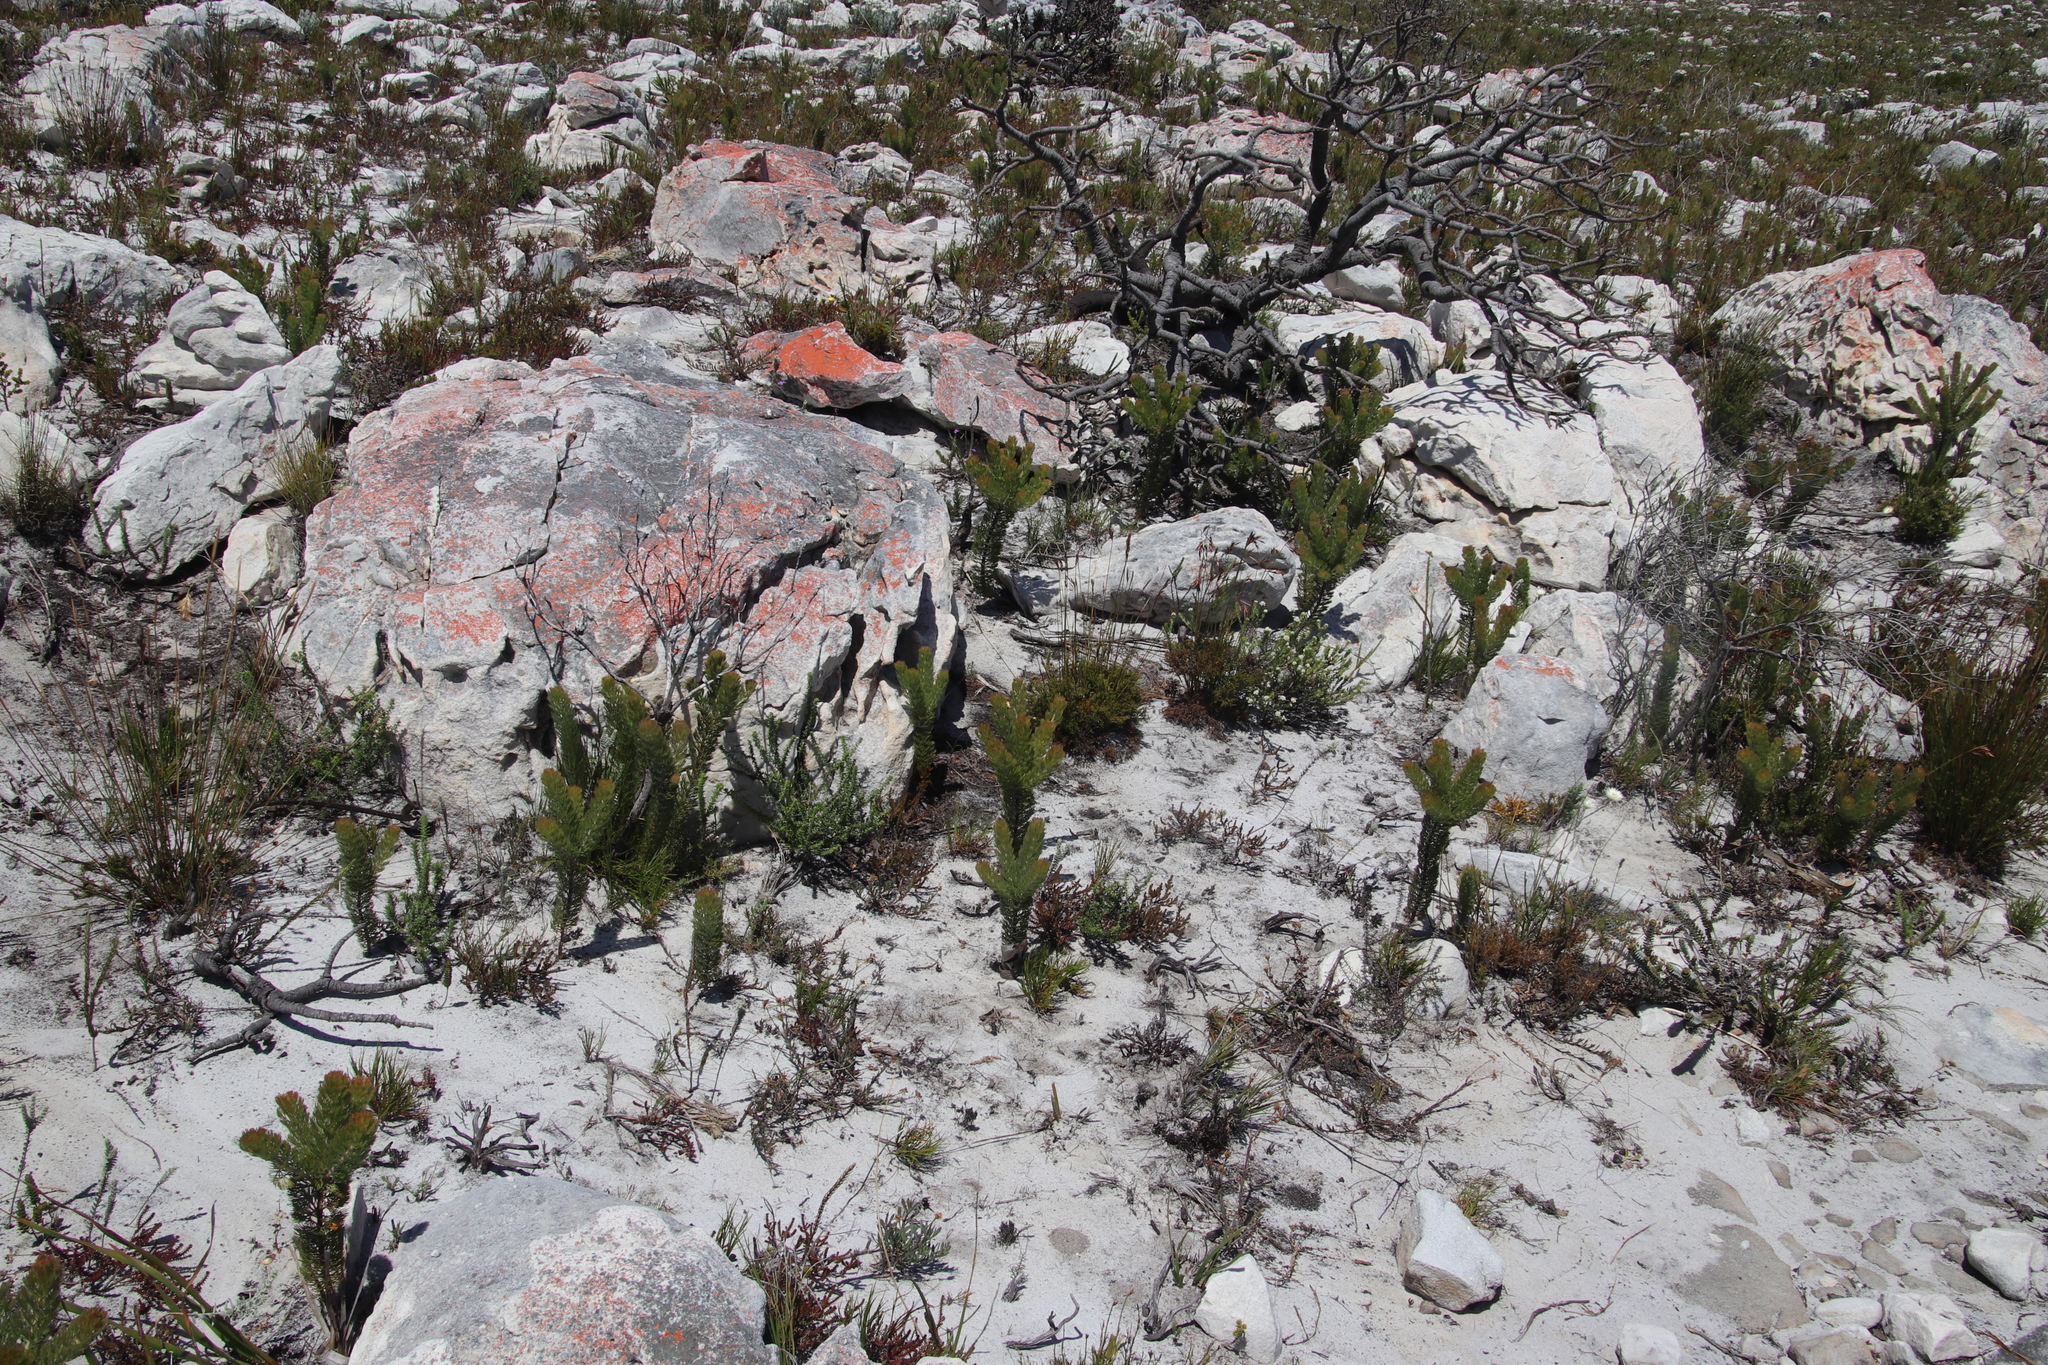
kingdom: Plantae
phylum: Tracheophyta
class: Magnoliopsida
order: Proteales
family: Proteaceae
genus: Serruria
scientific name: Serruria villosa
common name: Golden spiderhead
